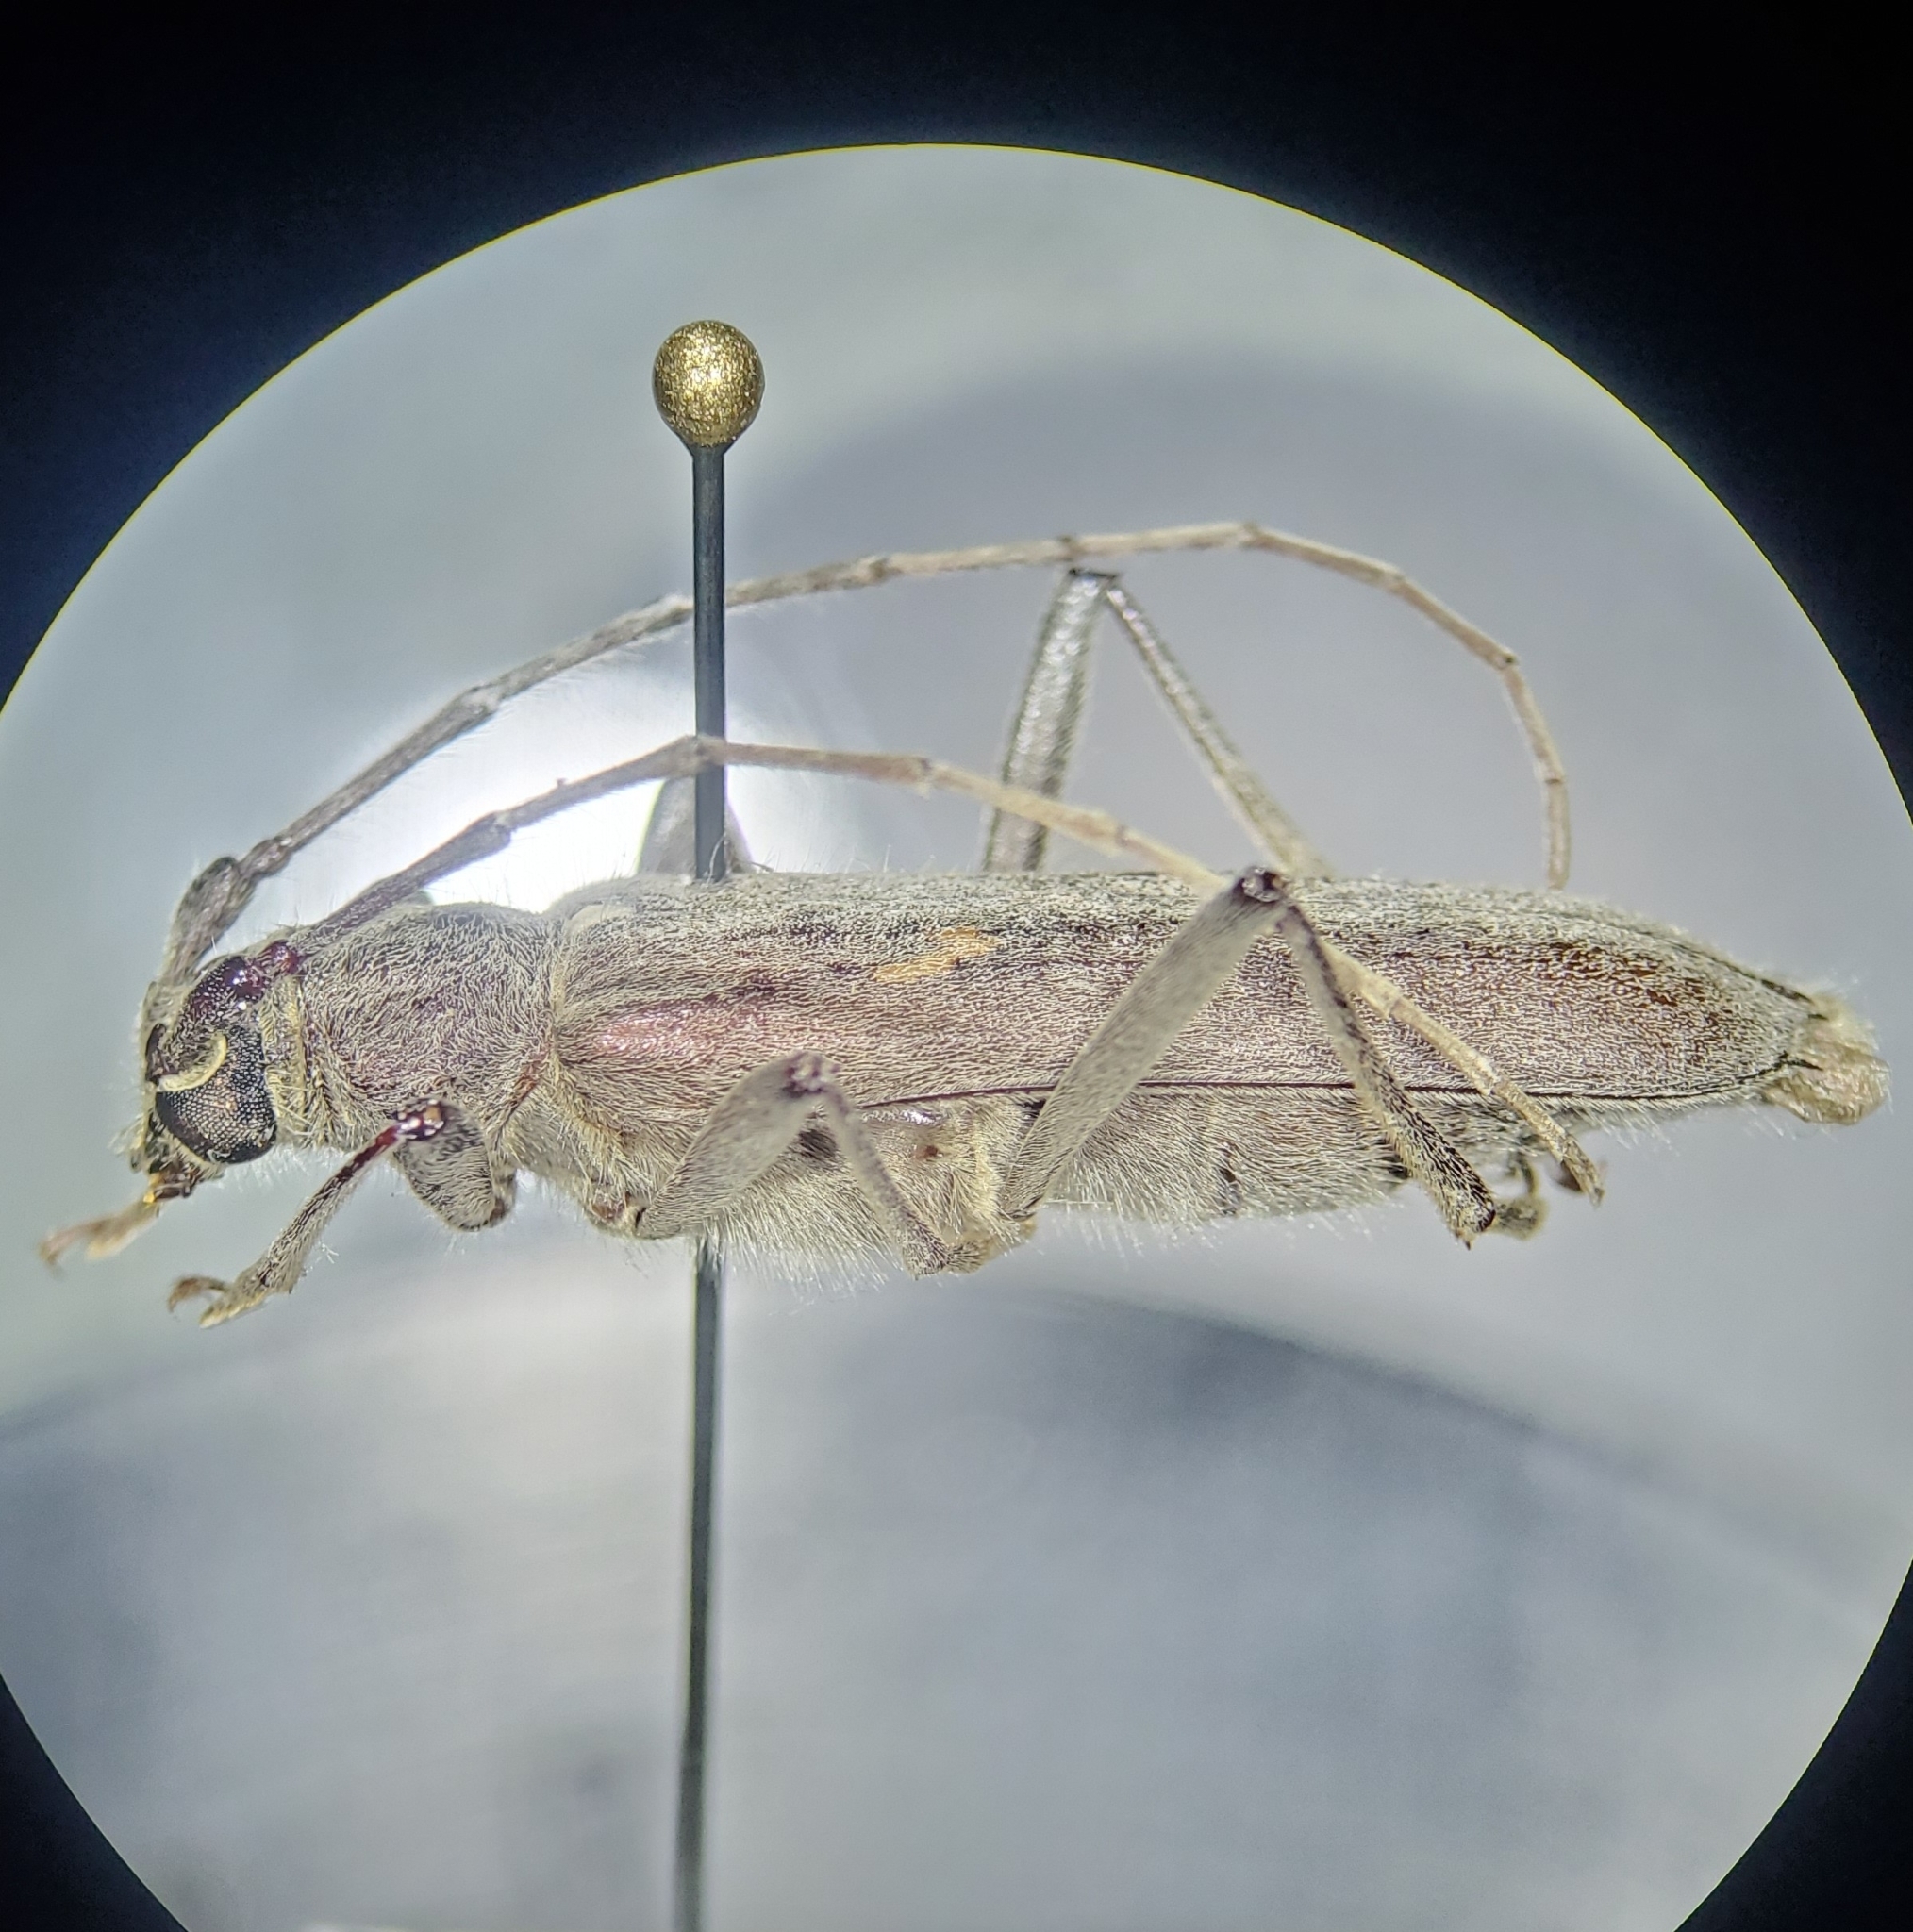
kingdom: Animalia
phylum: Arthropoda
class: Insecta
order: Coleoptera
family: Cerambycidae
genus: Knulliana
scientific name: Knulliana cincta
